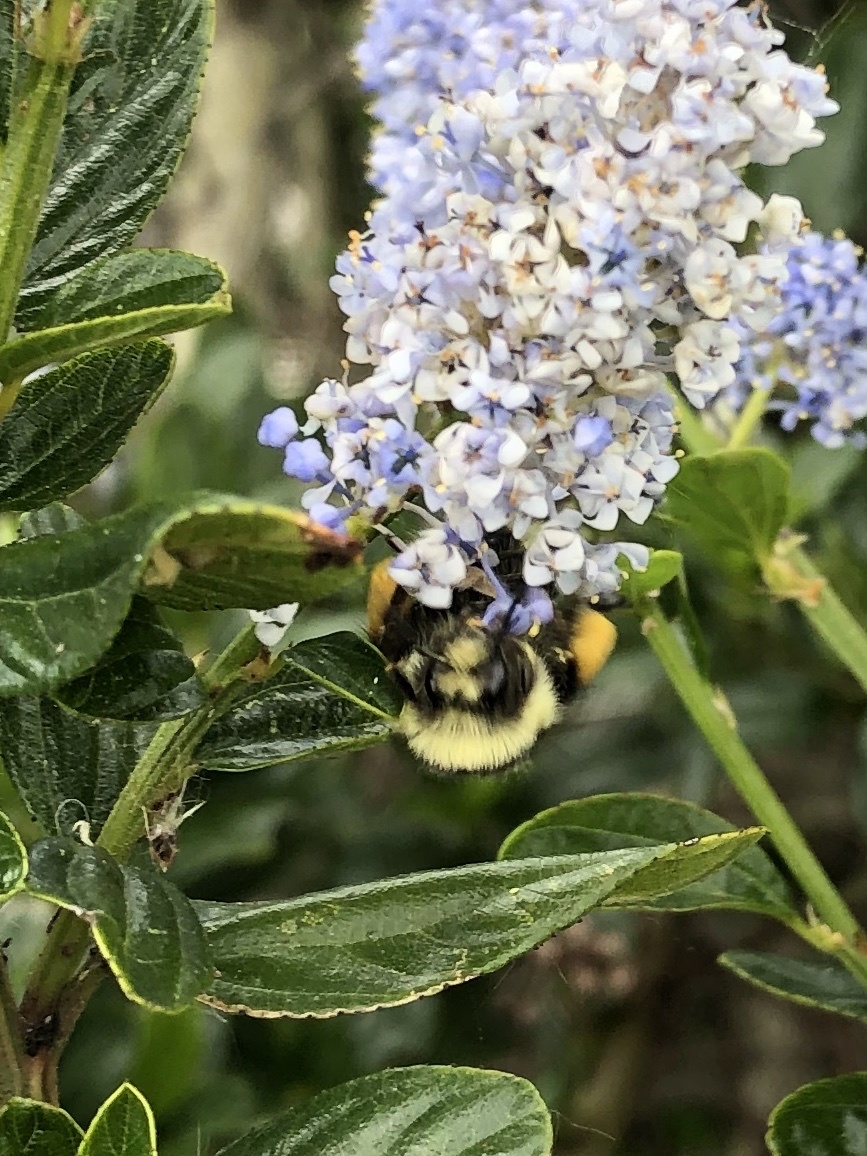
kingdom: Animalia
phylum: Arthropoda
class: Insecta
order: Hymenoptera
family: Apidae
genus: Pyrobombus
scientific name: Pyrobombus
